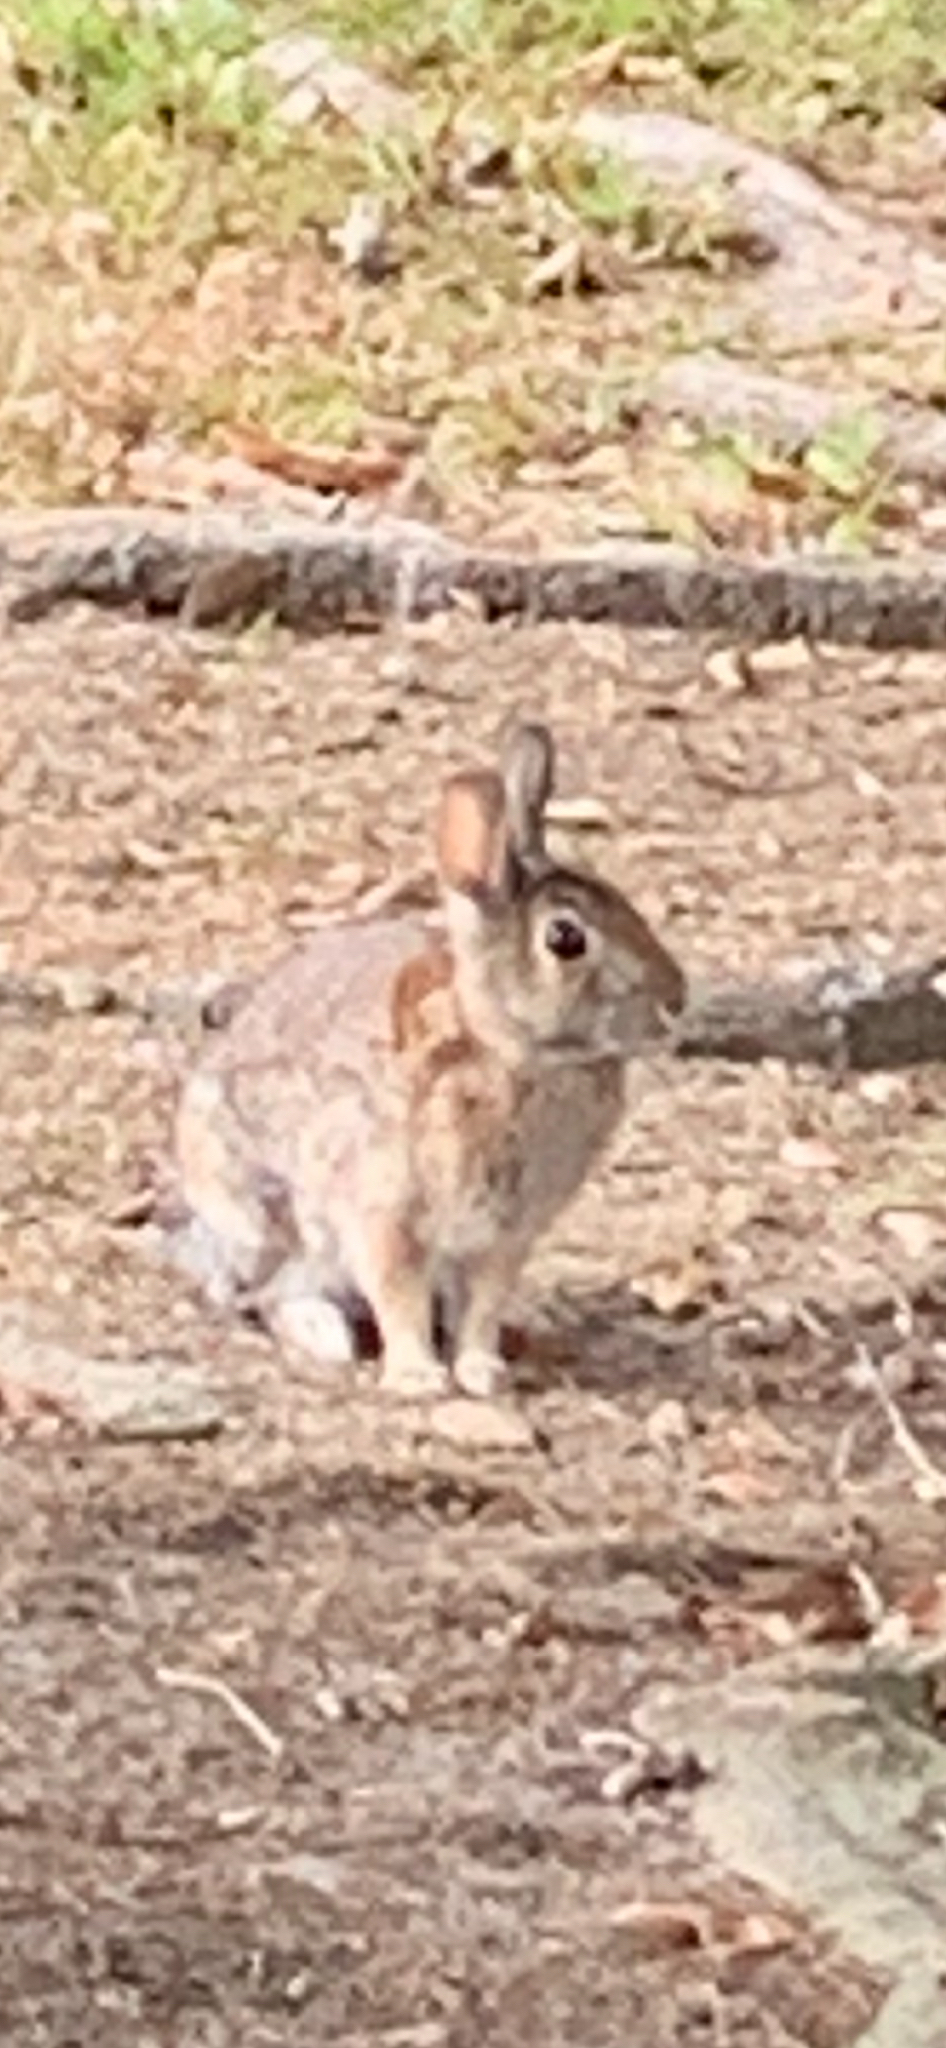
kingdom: Animalia
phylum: Chordata
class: Mammalia
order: Lagomorpha
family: Leporidae
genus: Sylvilagus
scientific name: Sylvilagus floridanus
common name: Eastern cottontail
